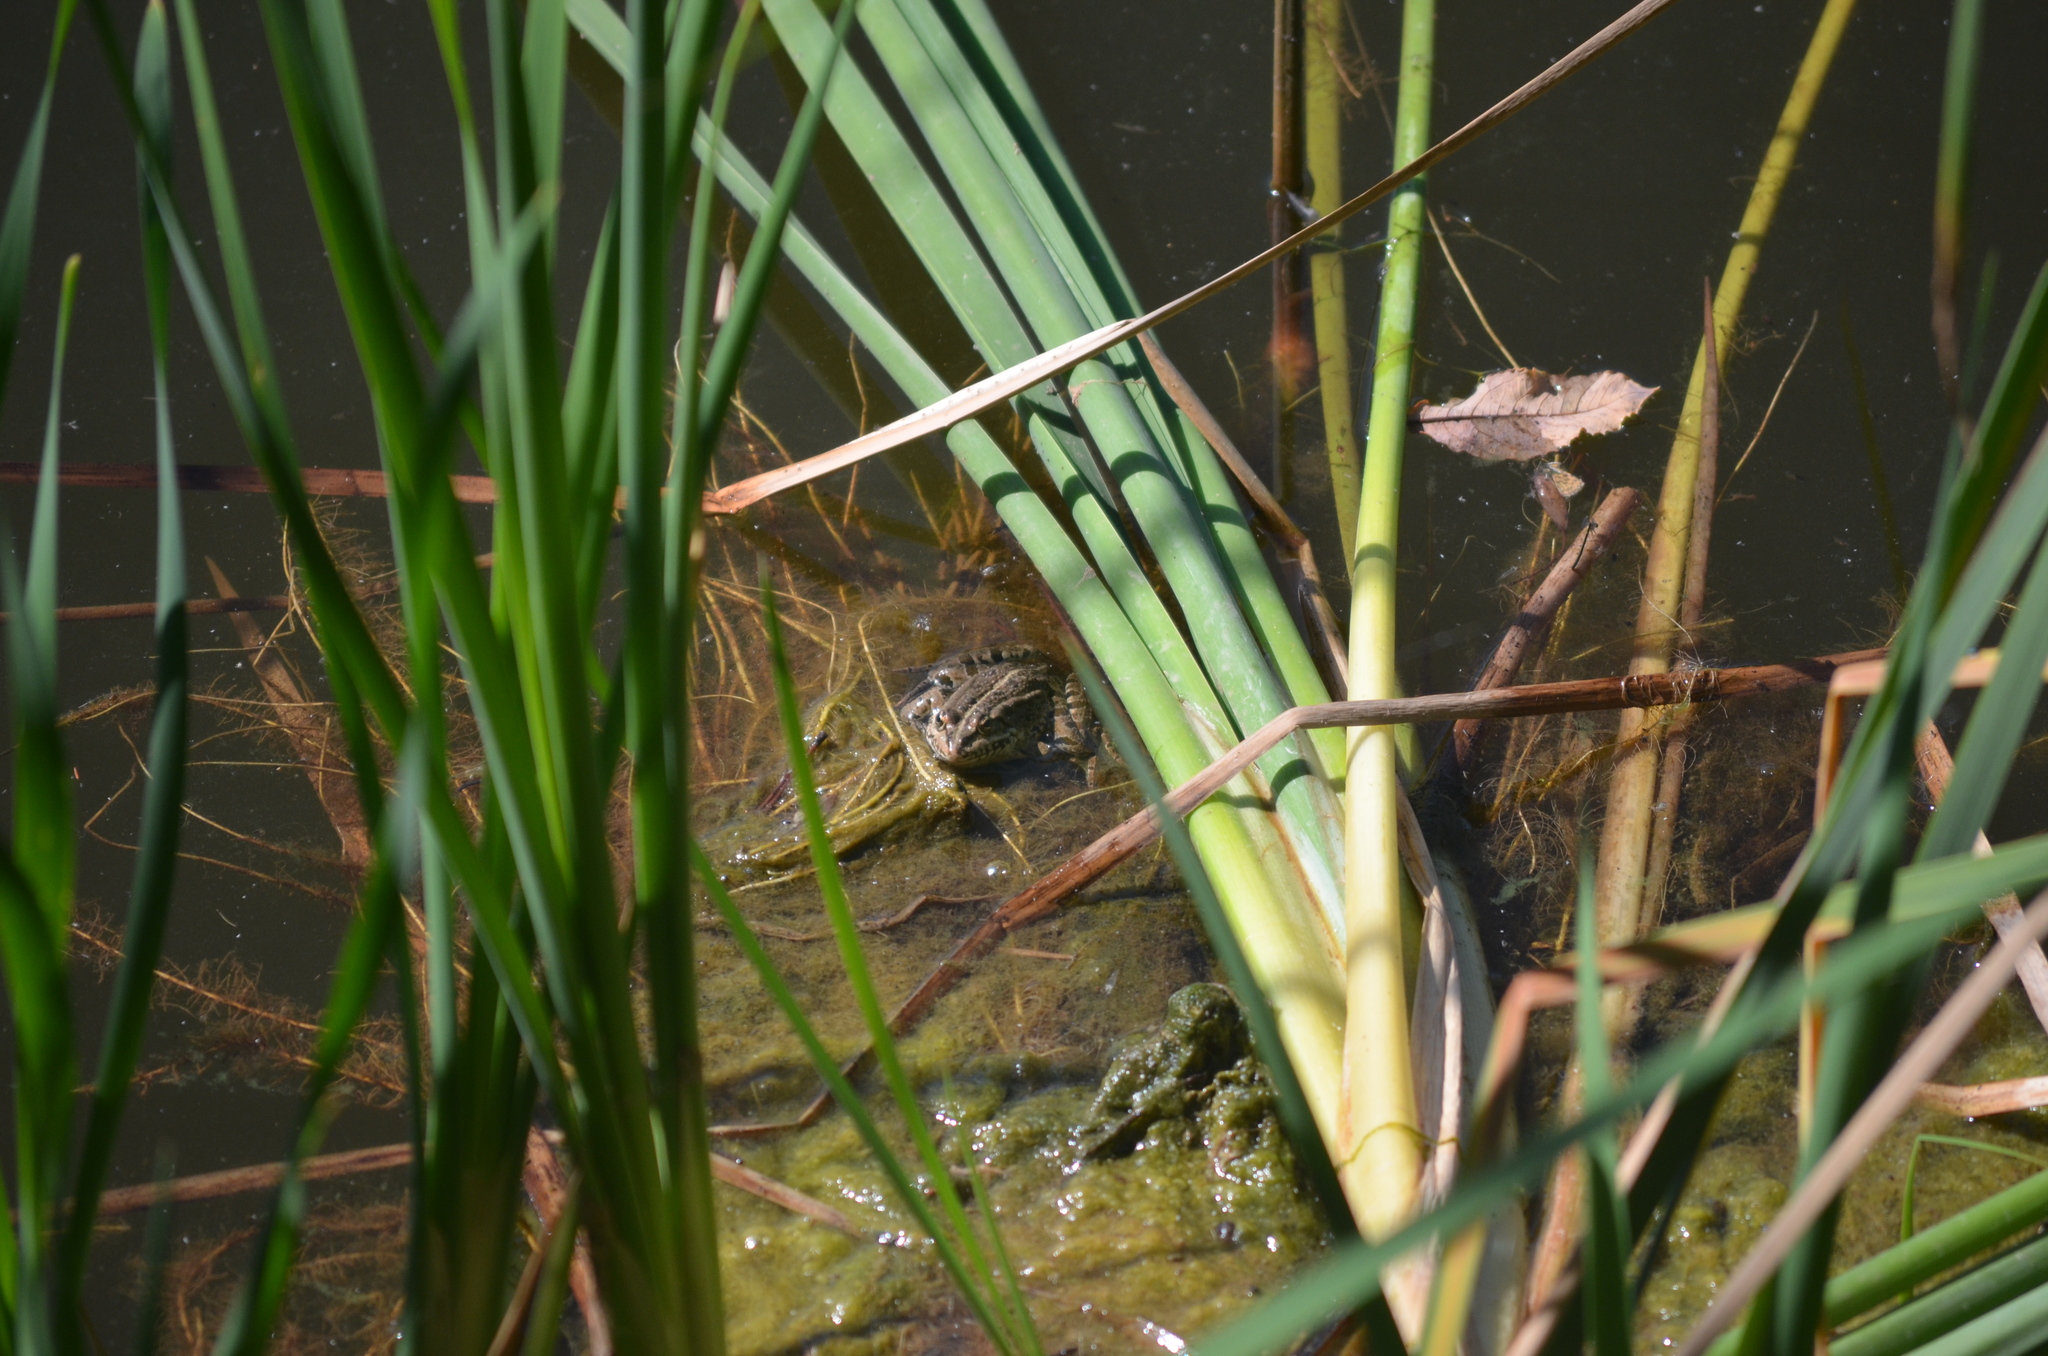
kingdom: Animalia
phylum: Chordata
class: Amphibia
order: Anura
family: Ranidae
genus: Pelophylax
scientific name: Pelophylax perezi
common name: Perez's frog
